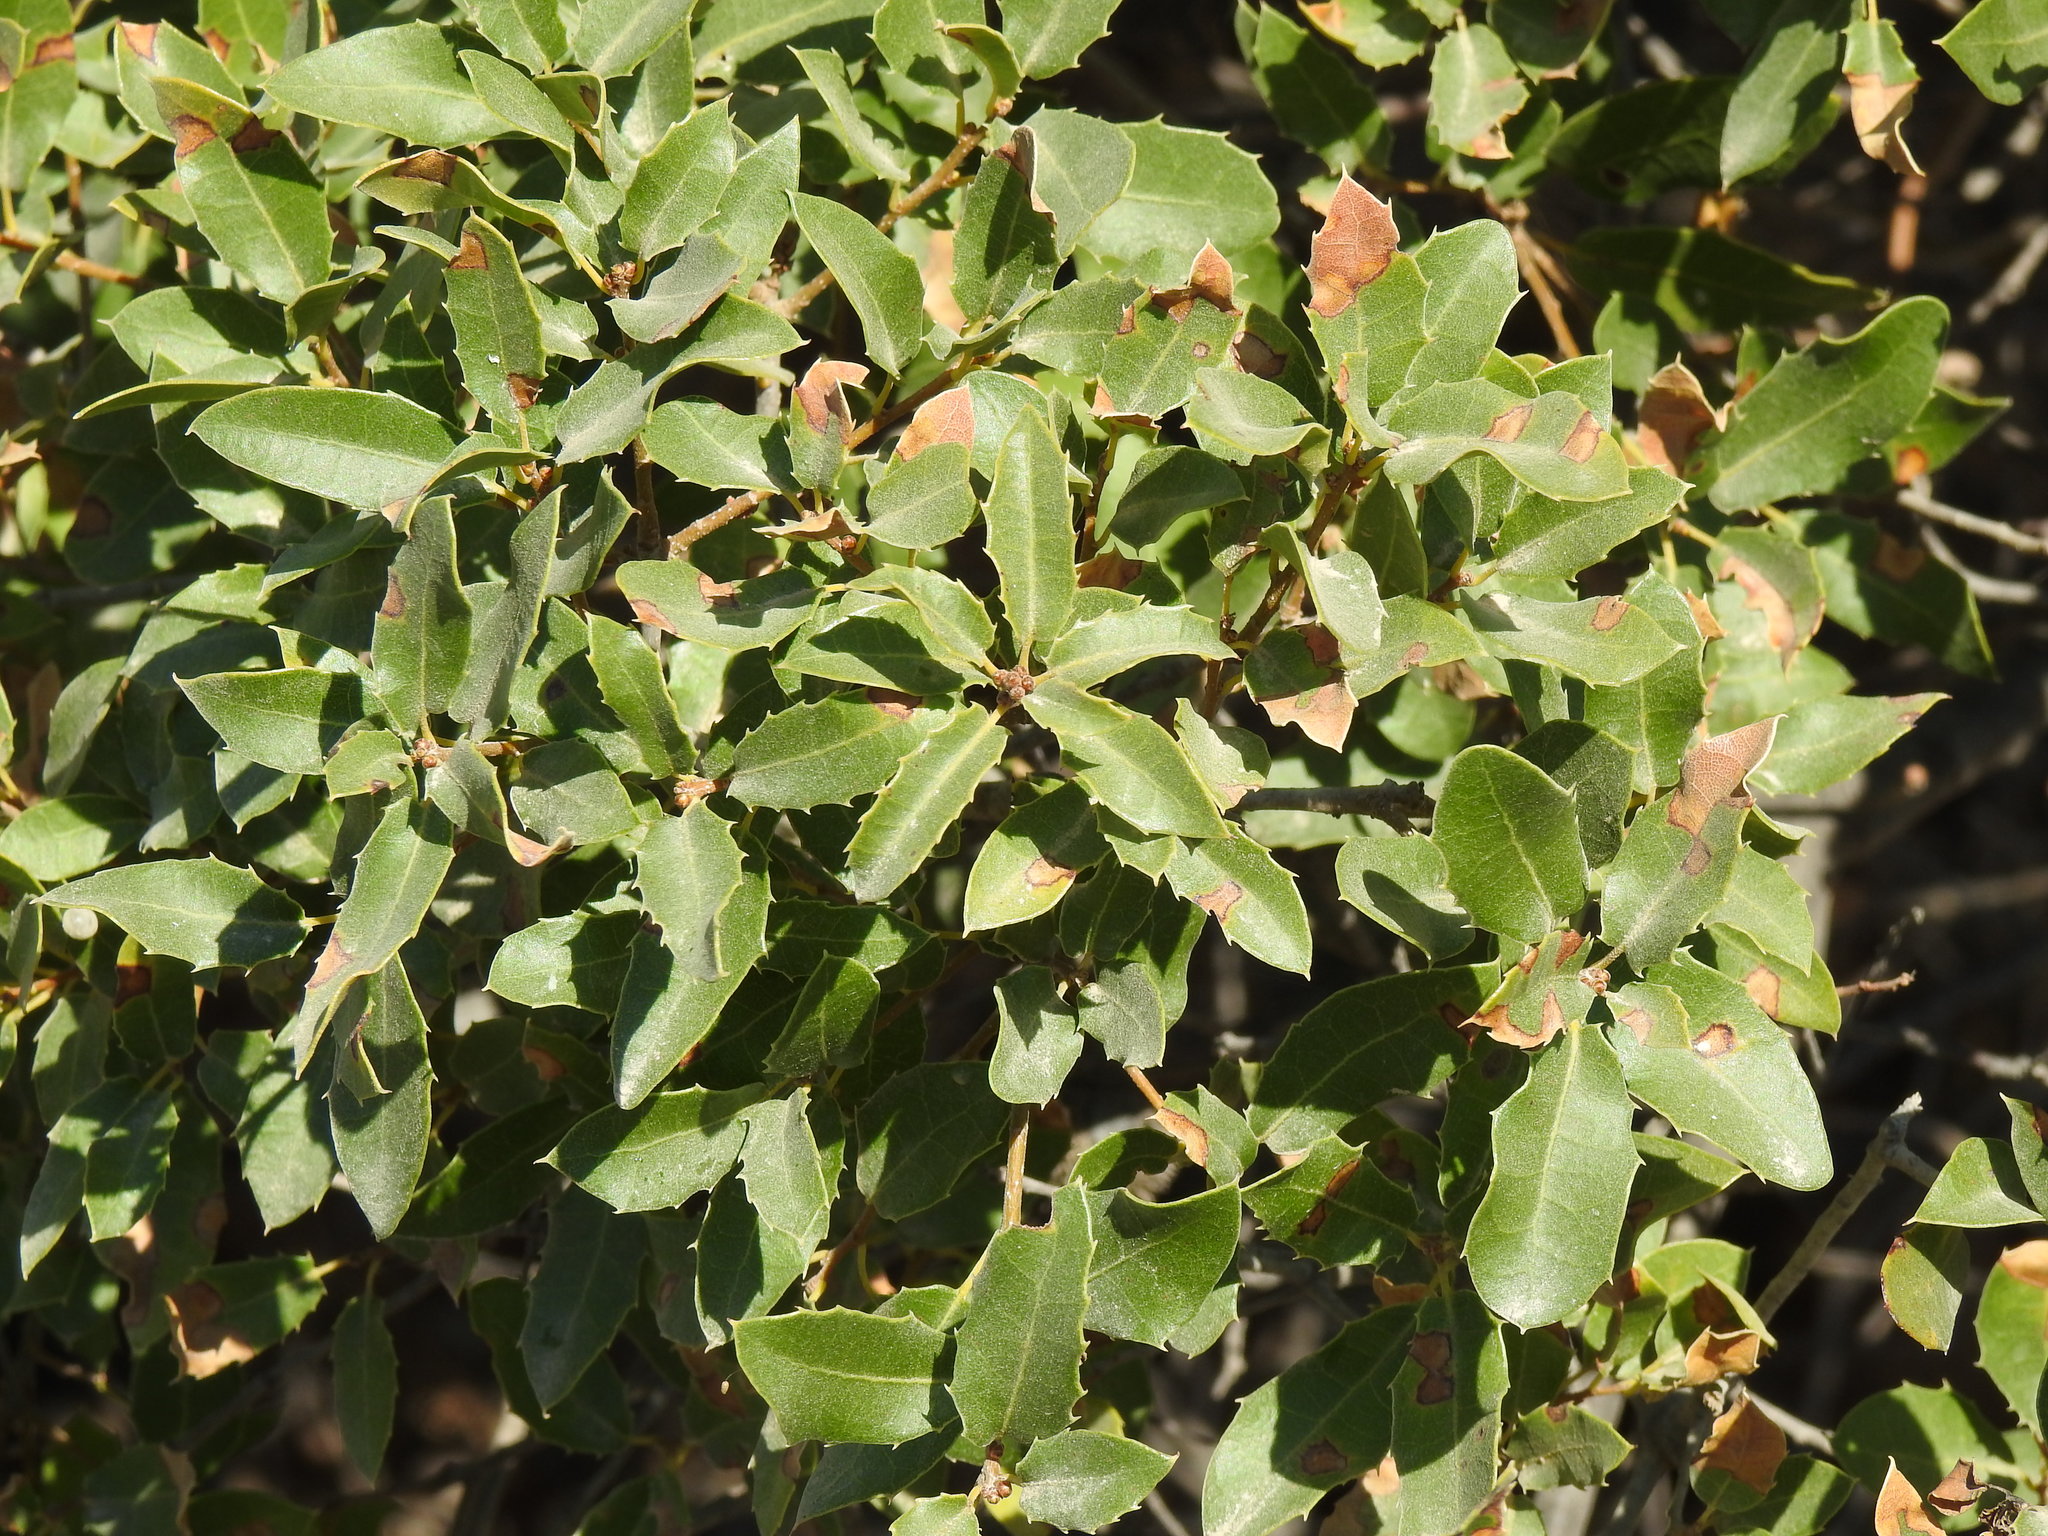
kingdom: Plantae
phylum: Tracheophyta
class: Magnoliopsida
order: Fagales
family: Fagaceae
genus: Quercus
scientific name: Quercus coccifera
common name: Kermes oak
